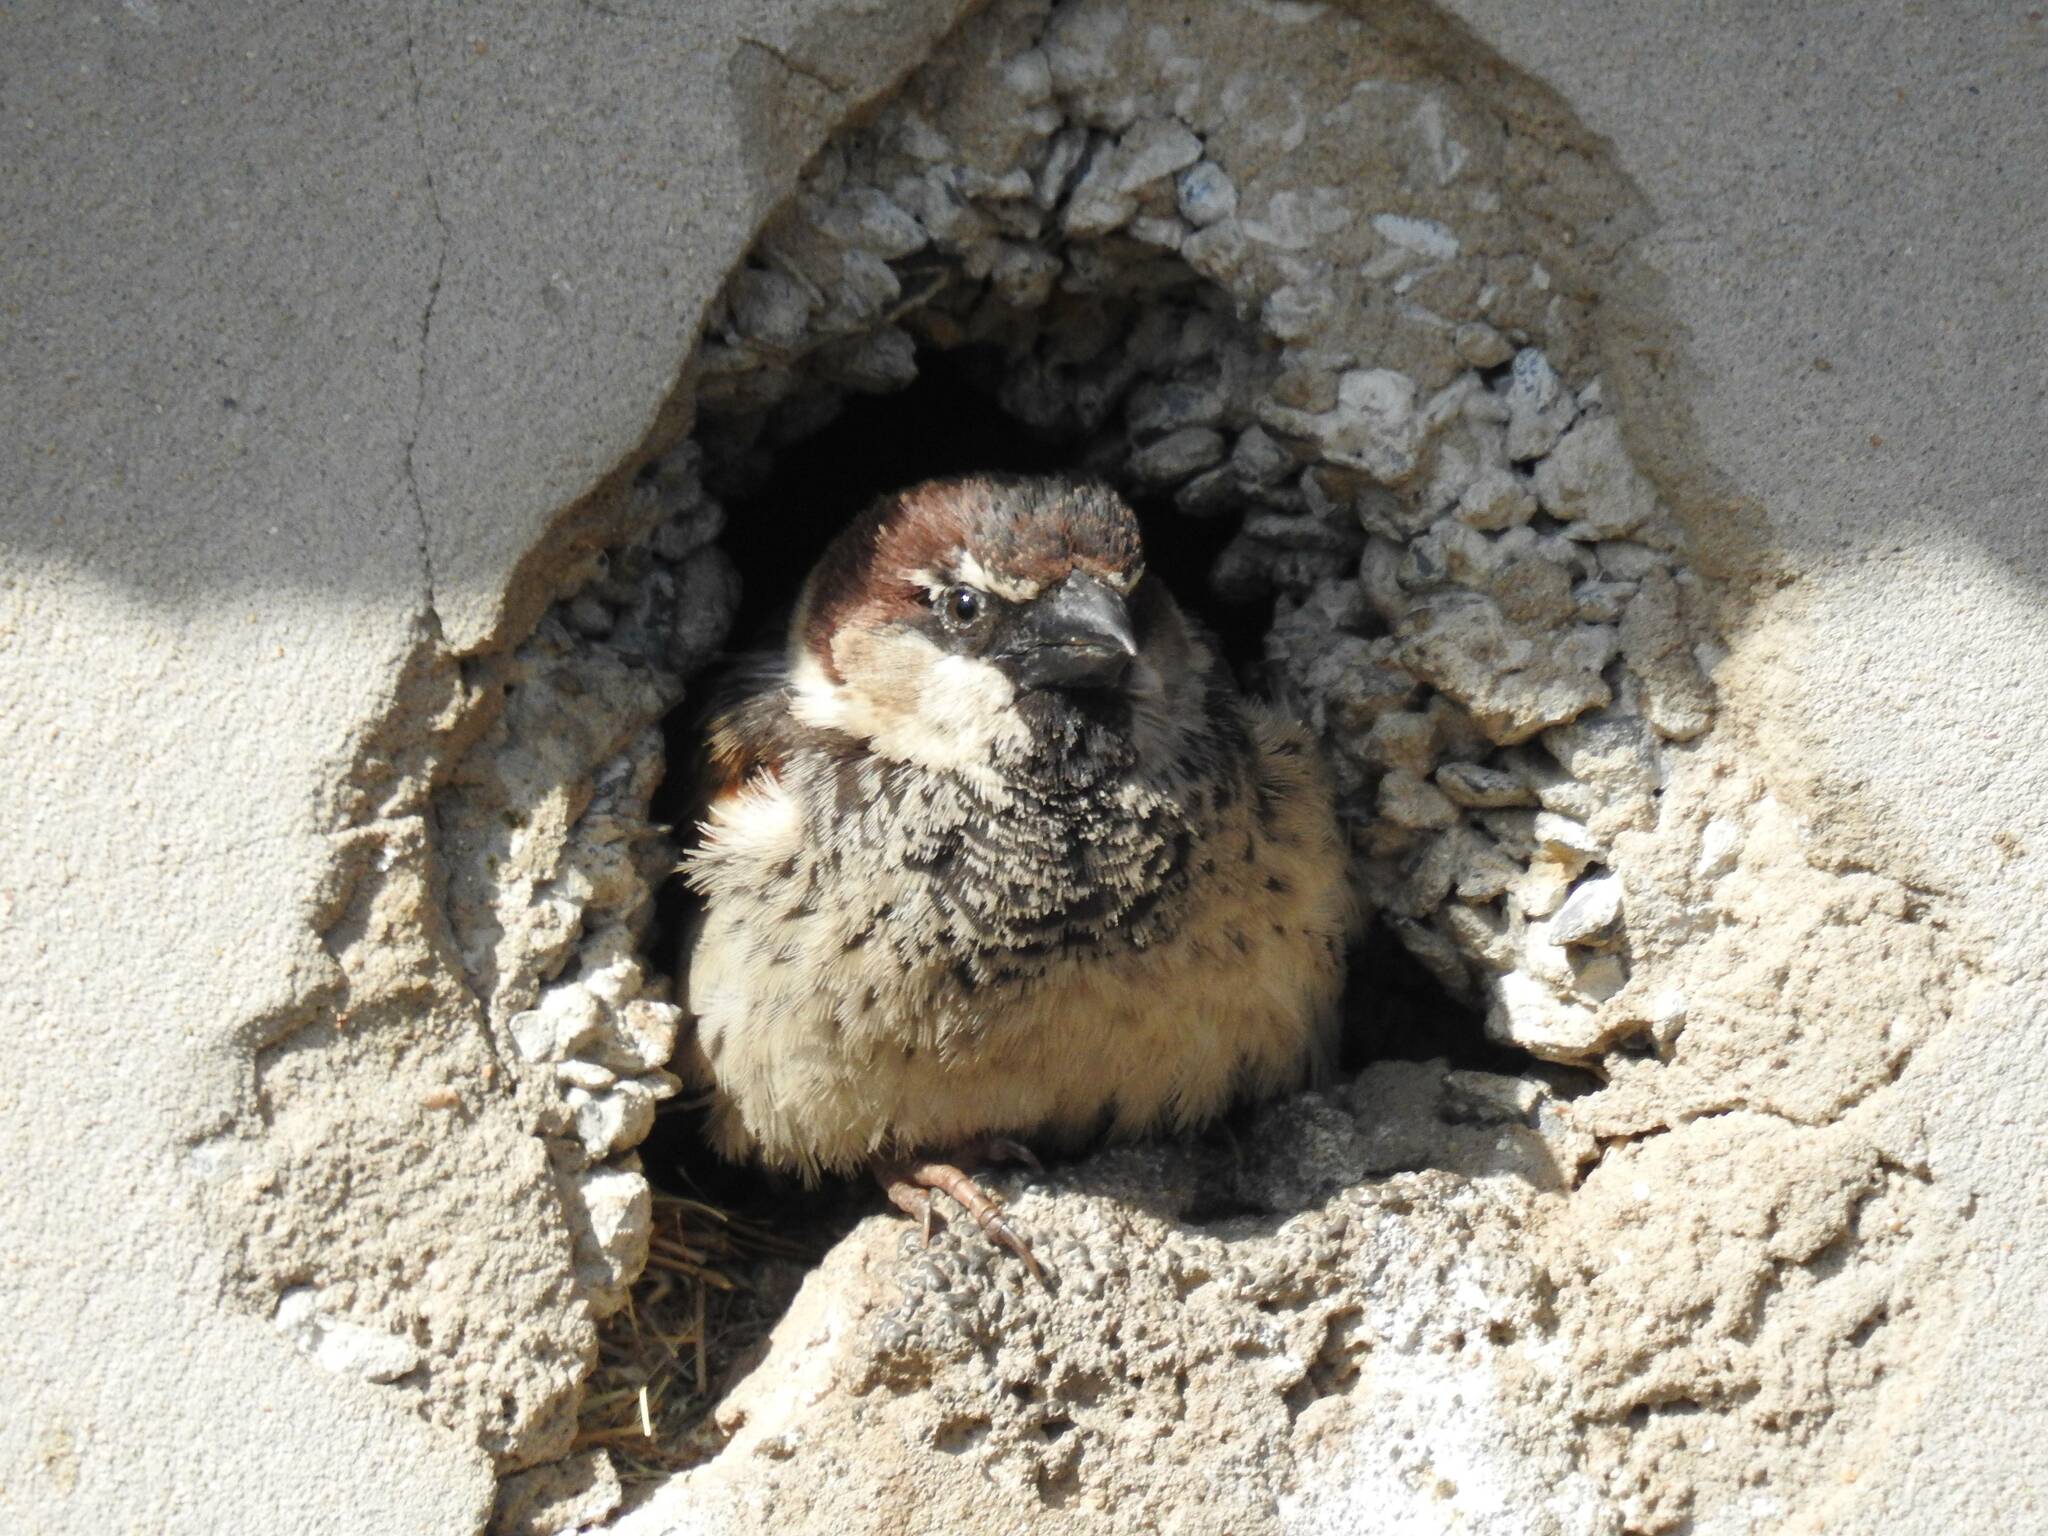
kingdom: Animalia
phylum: Chordata
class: Aves
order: Passeriformes
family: Passeridae
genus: Passer
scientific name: Passer domesticus
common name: House sparrow
